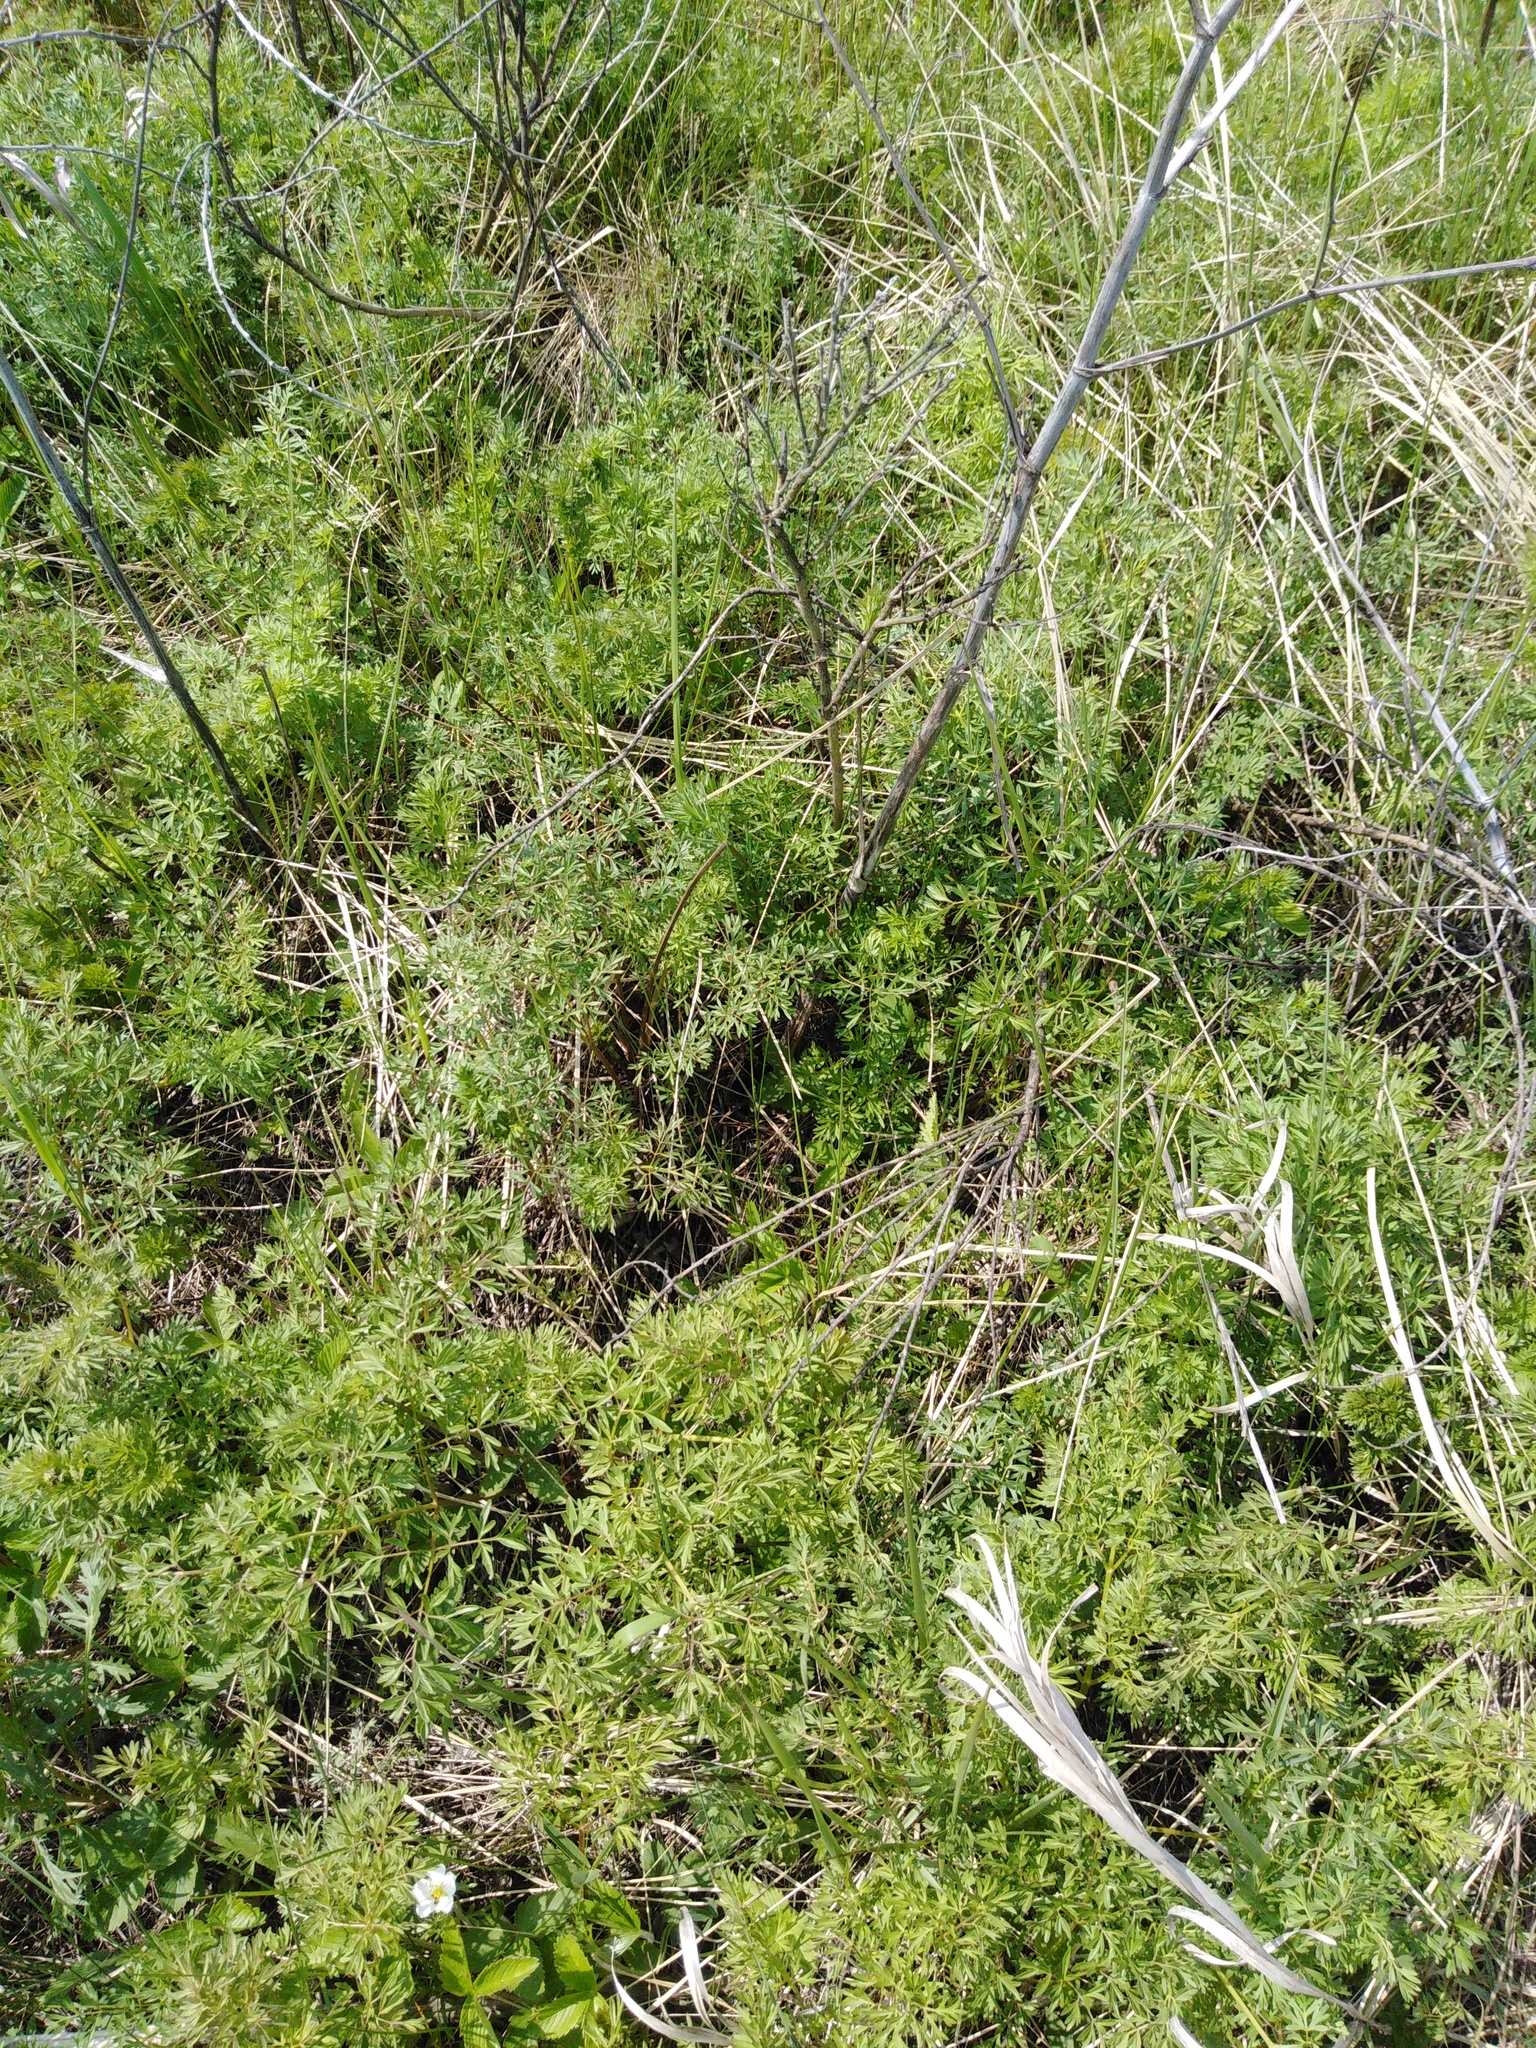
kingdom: Plantae
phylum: Tracheophyta
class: Magnoliopsida
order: Apiales
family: Apiaceae
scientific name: Apiaceae
